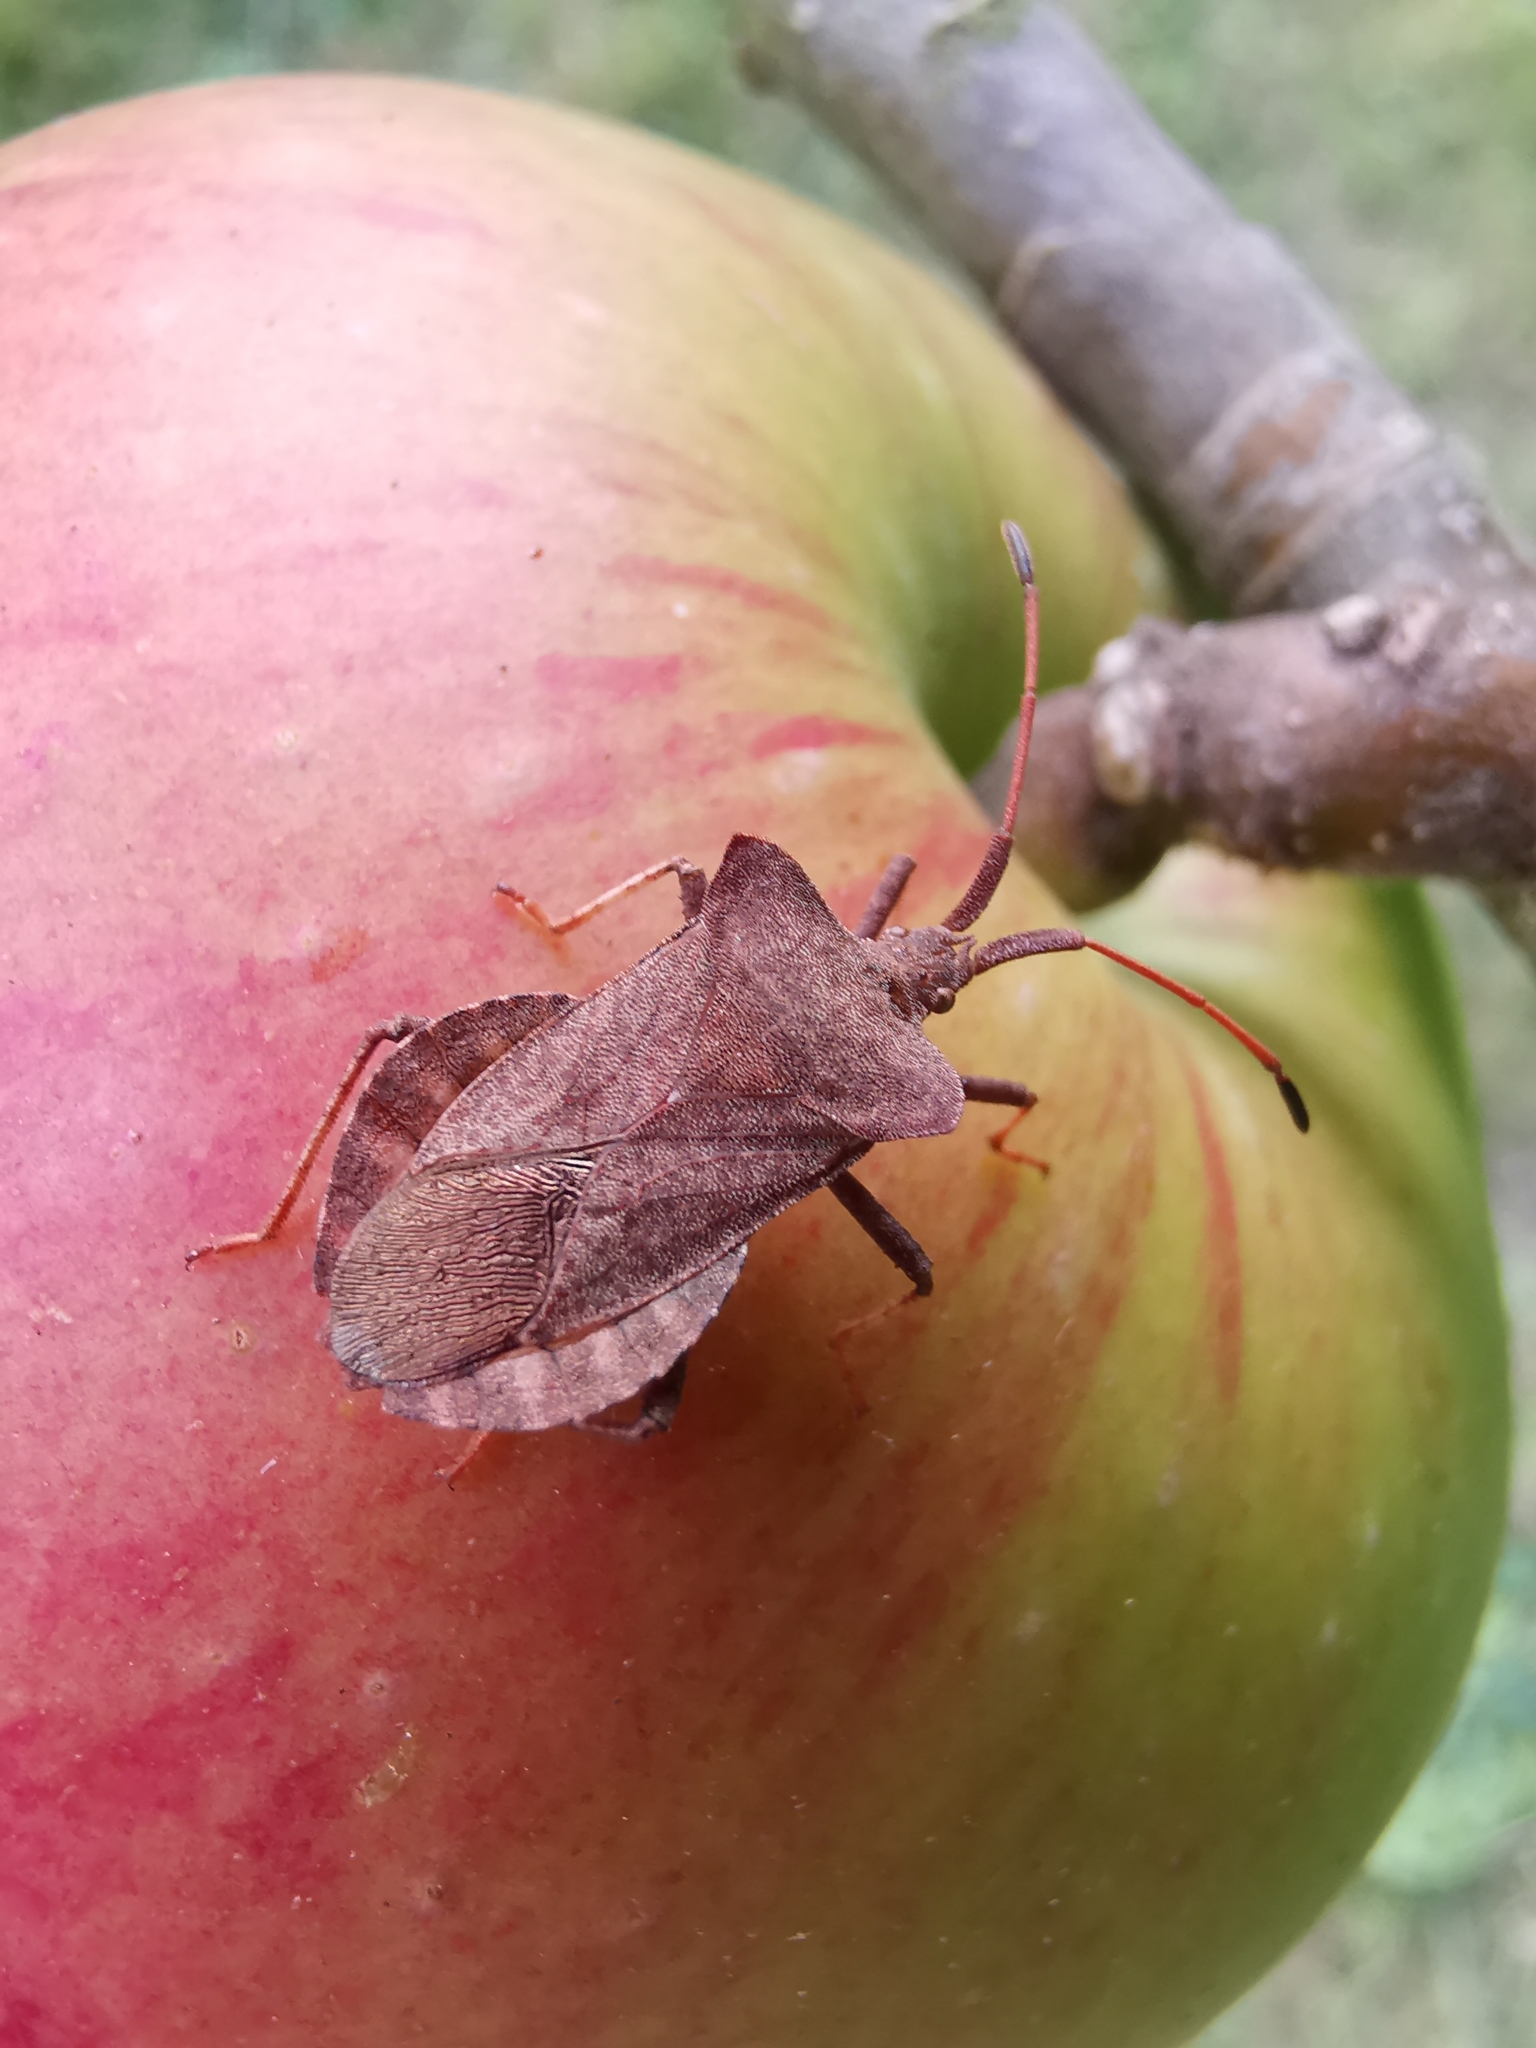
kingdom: Animalia
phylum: Arthropoda
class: Insecta
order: Hemiptera
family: Coreidae
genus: Coreus
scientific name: Coreus marginatus
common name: Dock bug
